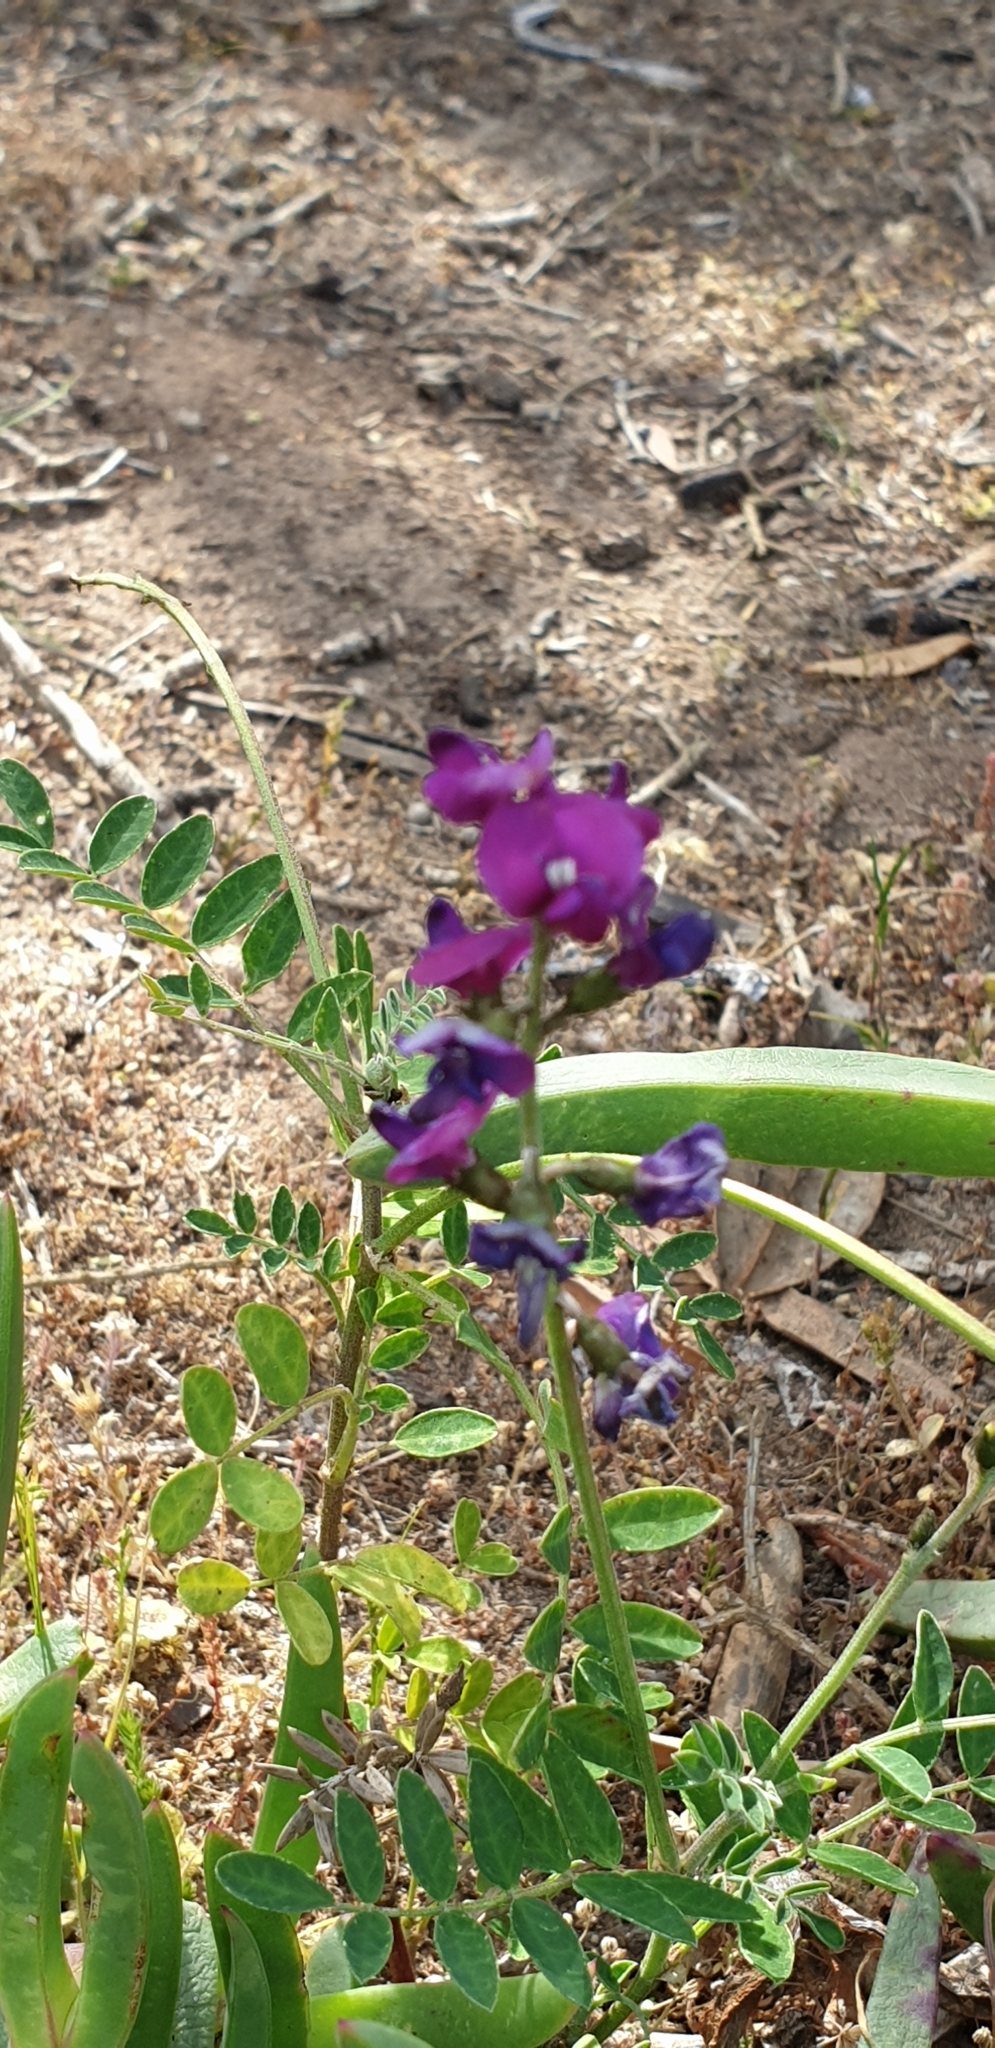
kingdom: Plantae
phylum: Tracheophyta
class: Magnoliopsida
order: Fabales
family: Fabaceae
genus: Swainsona
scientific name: Swainsona lessertiifolia
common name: Bog-pea
